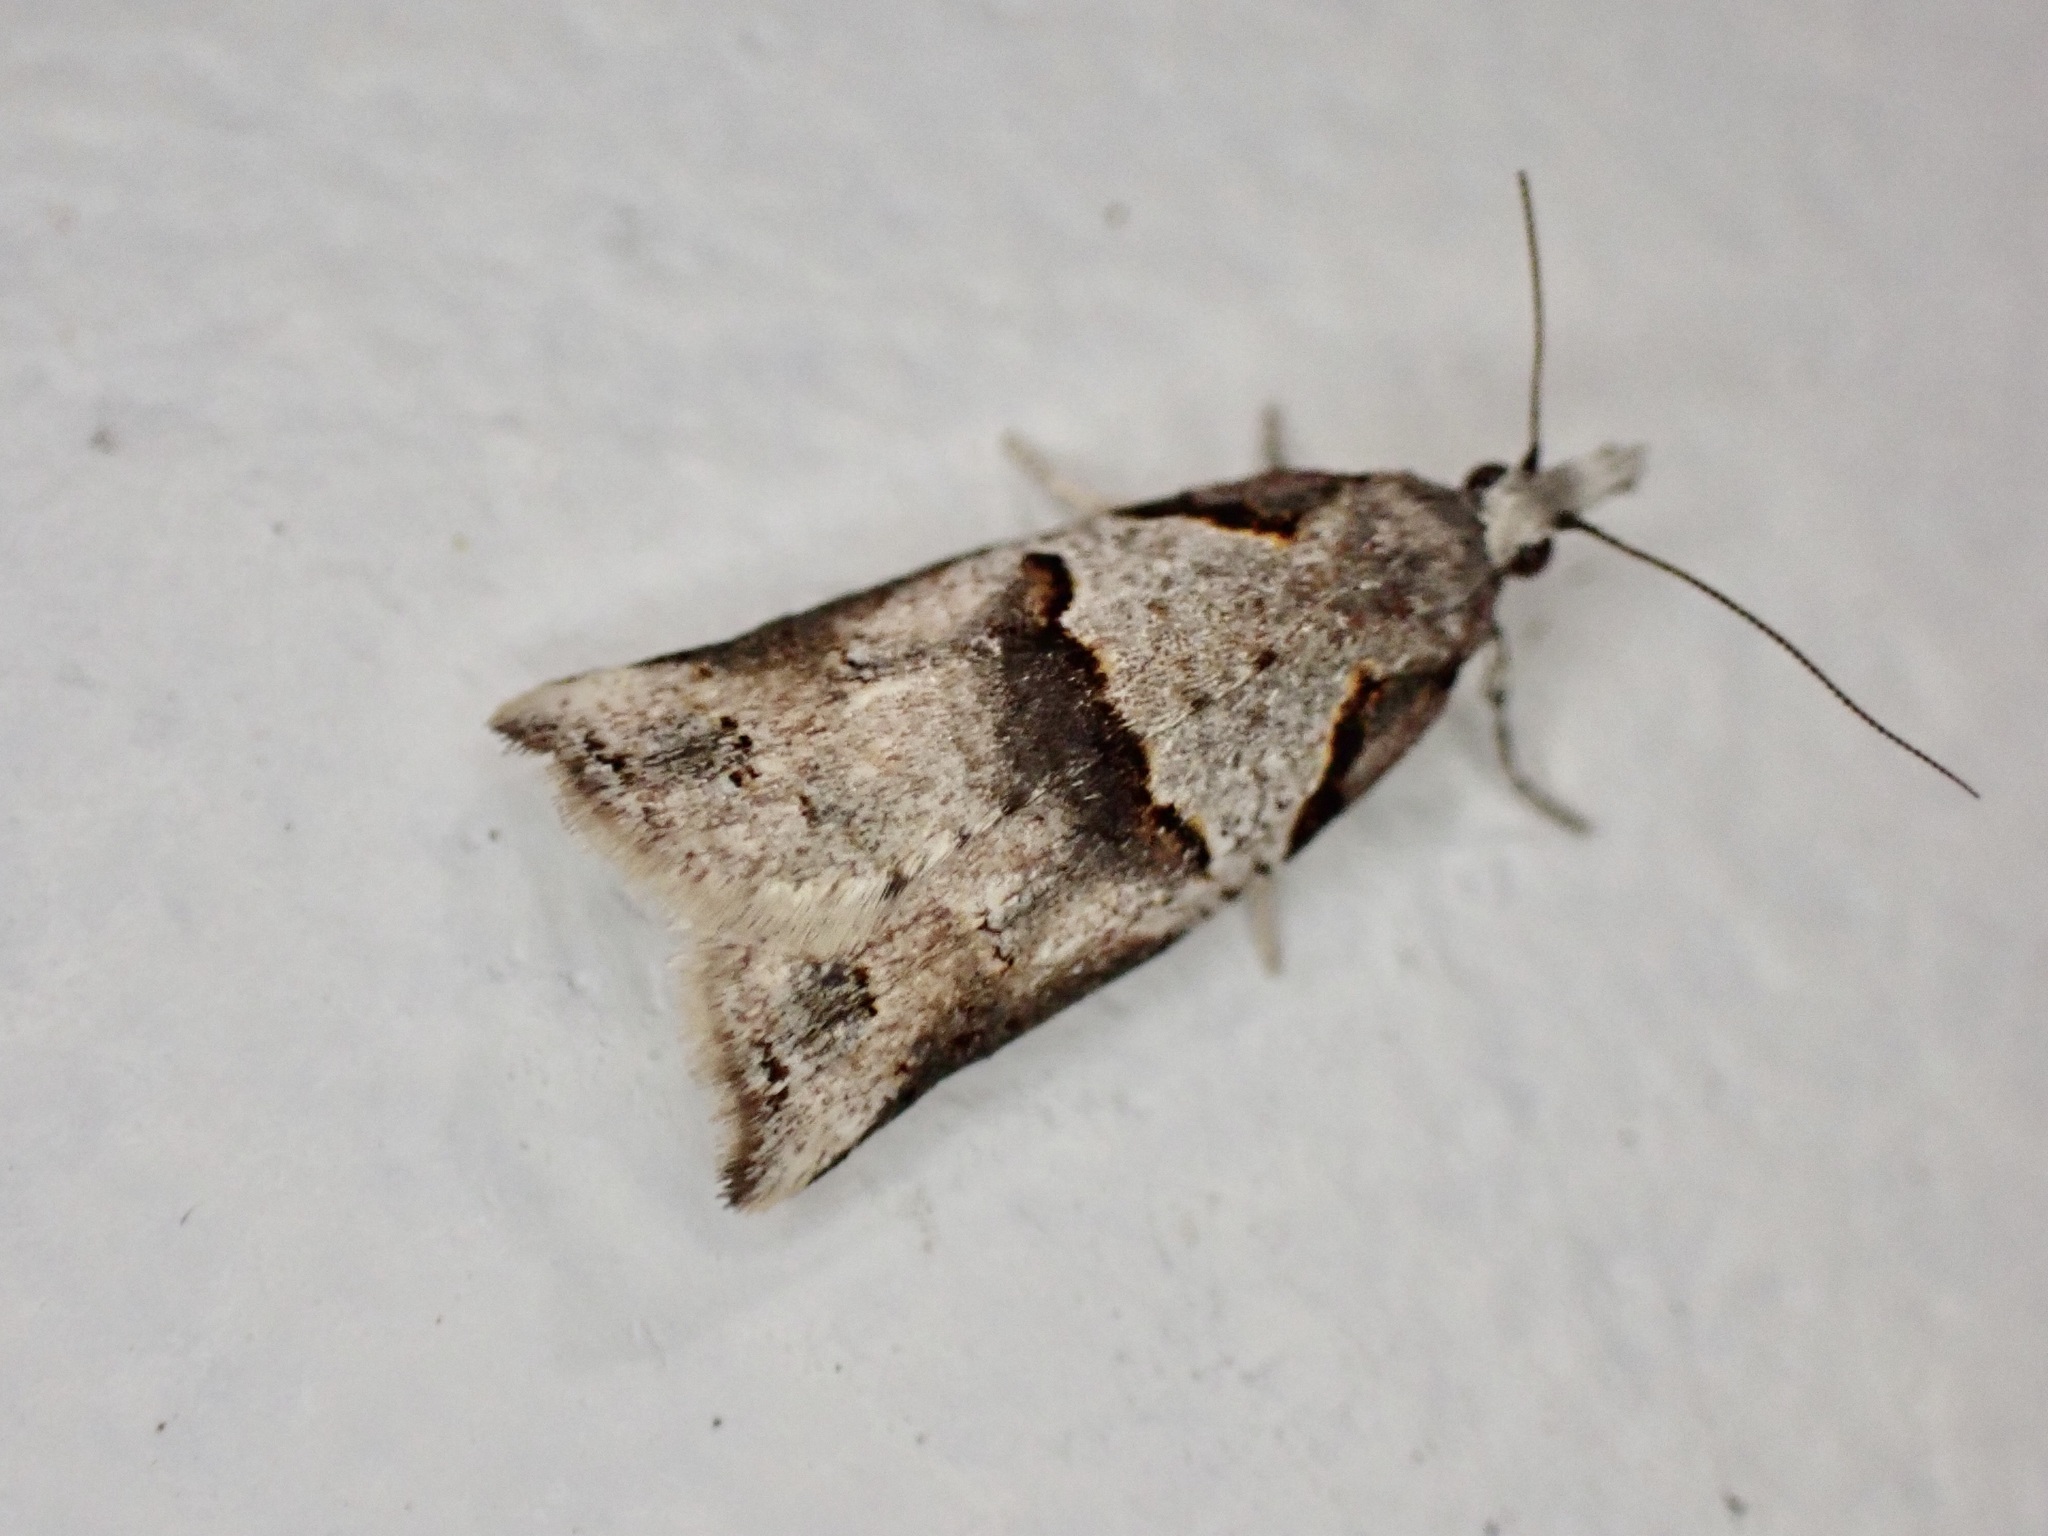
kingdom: Animalia
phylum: Arthropoda
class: Insecta
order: Lepidoptera
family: Tortricidae
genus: Harmologa
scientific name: Harmologa amplexana
